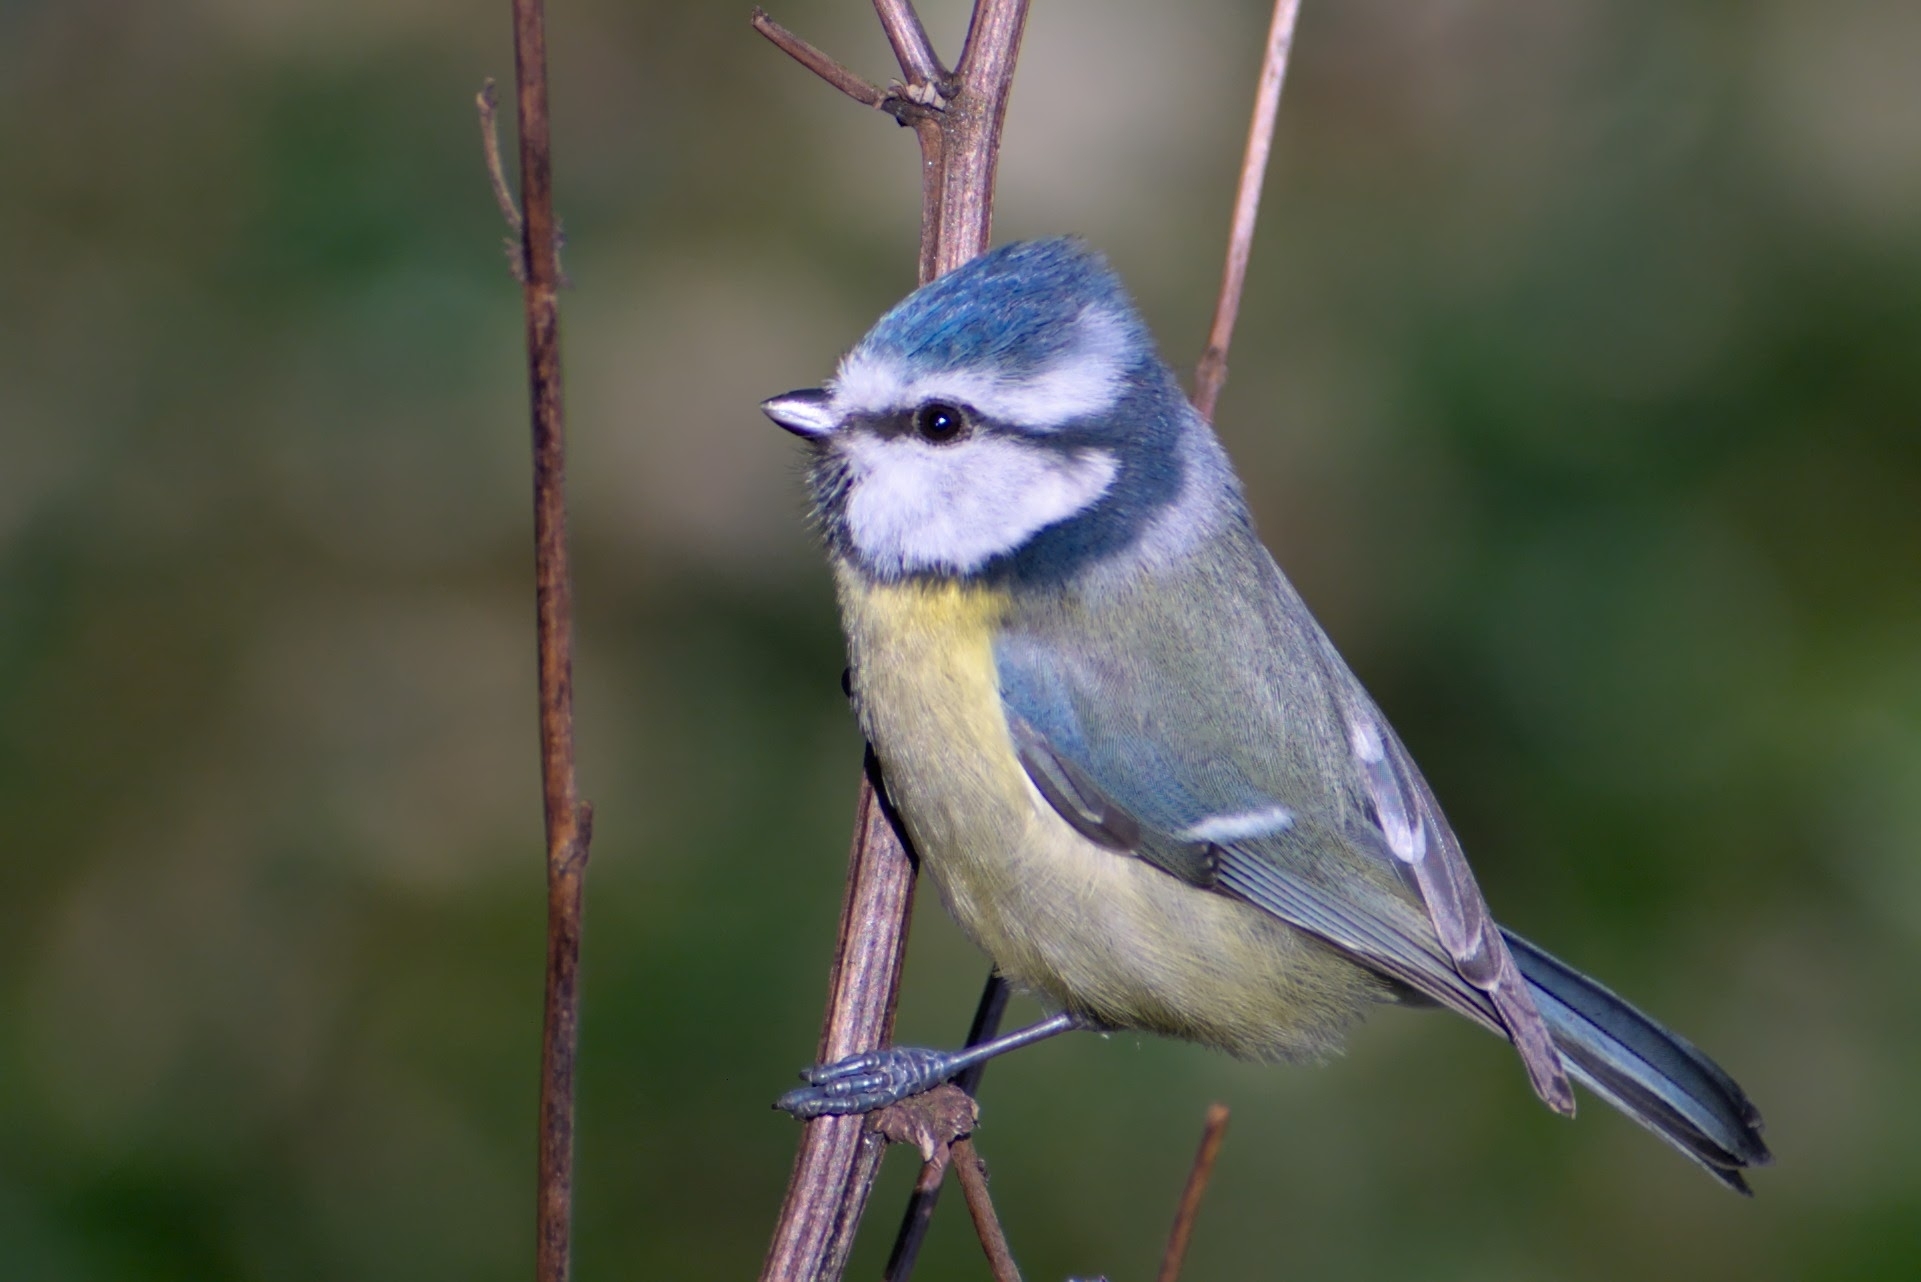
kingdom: Animalia
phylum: Chordata
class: Aves
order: Passeriformes
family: Paridae
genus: Cyanistes
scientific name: Cyanistes caeruleus
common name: Eurasian blue tit
